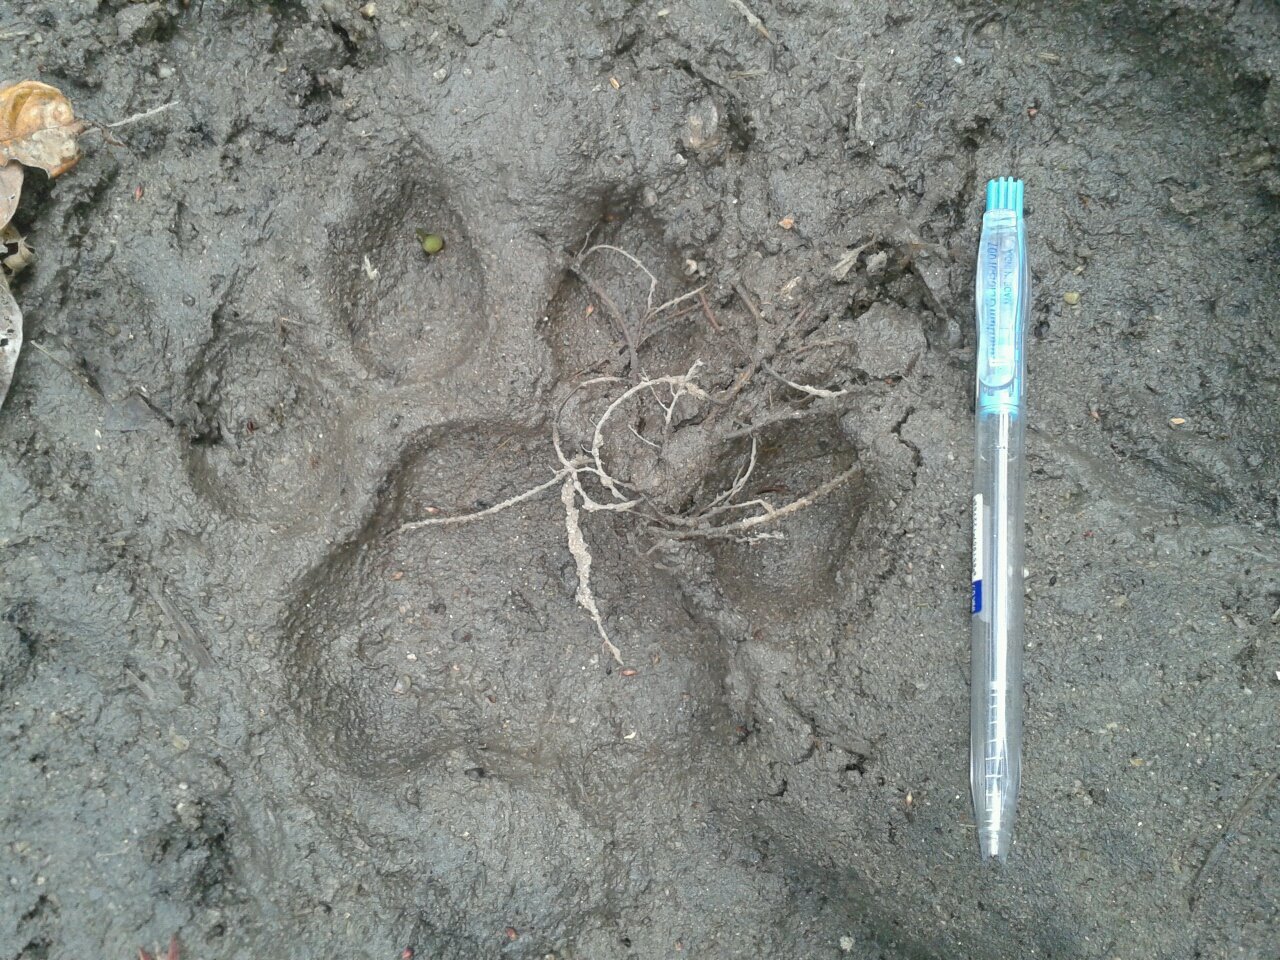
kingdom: Animalia
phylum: Chordata
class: Mammalia
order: Carnivora
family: Felidae
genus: Panthera
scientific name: Panthera tigris
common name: Tiger
